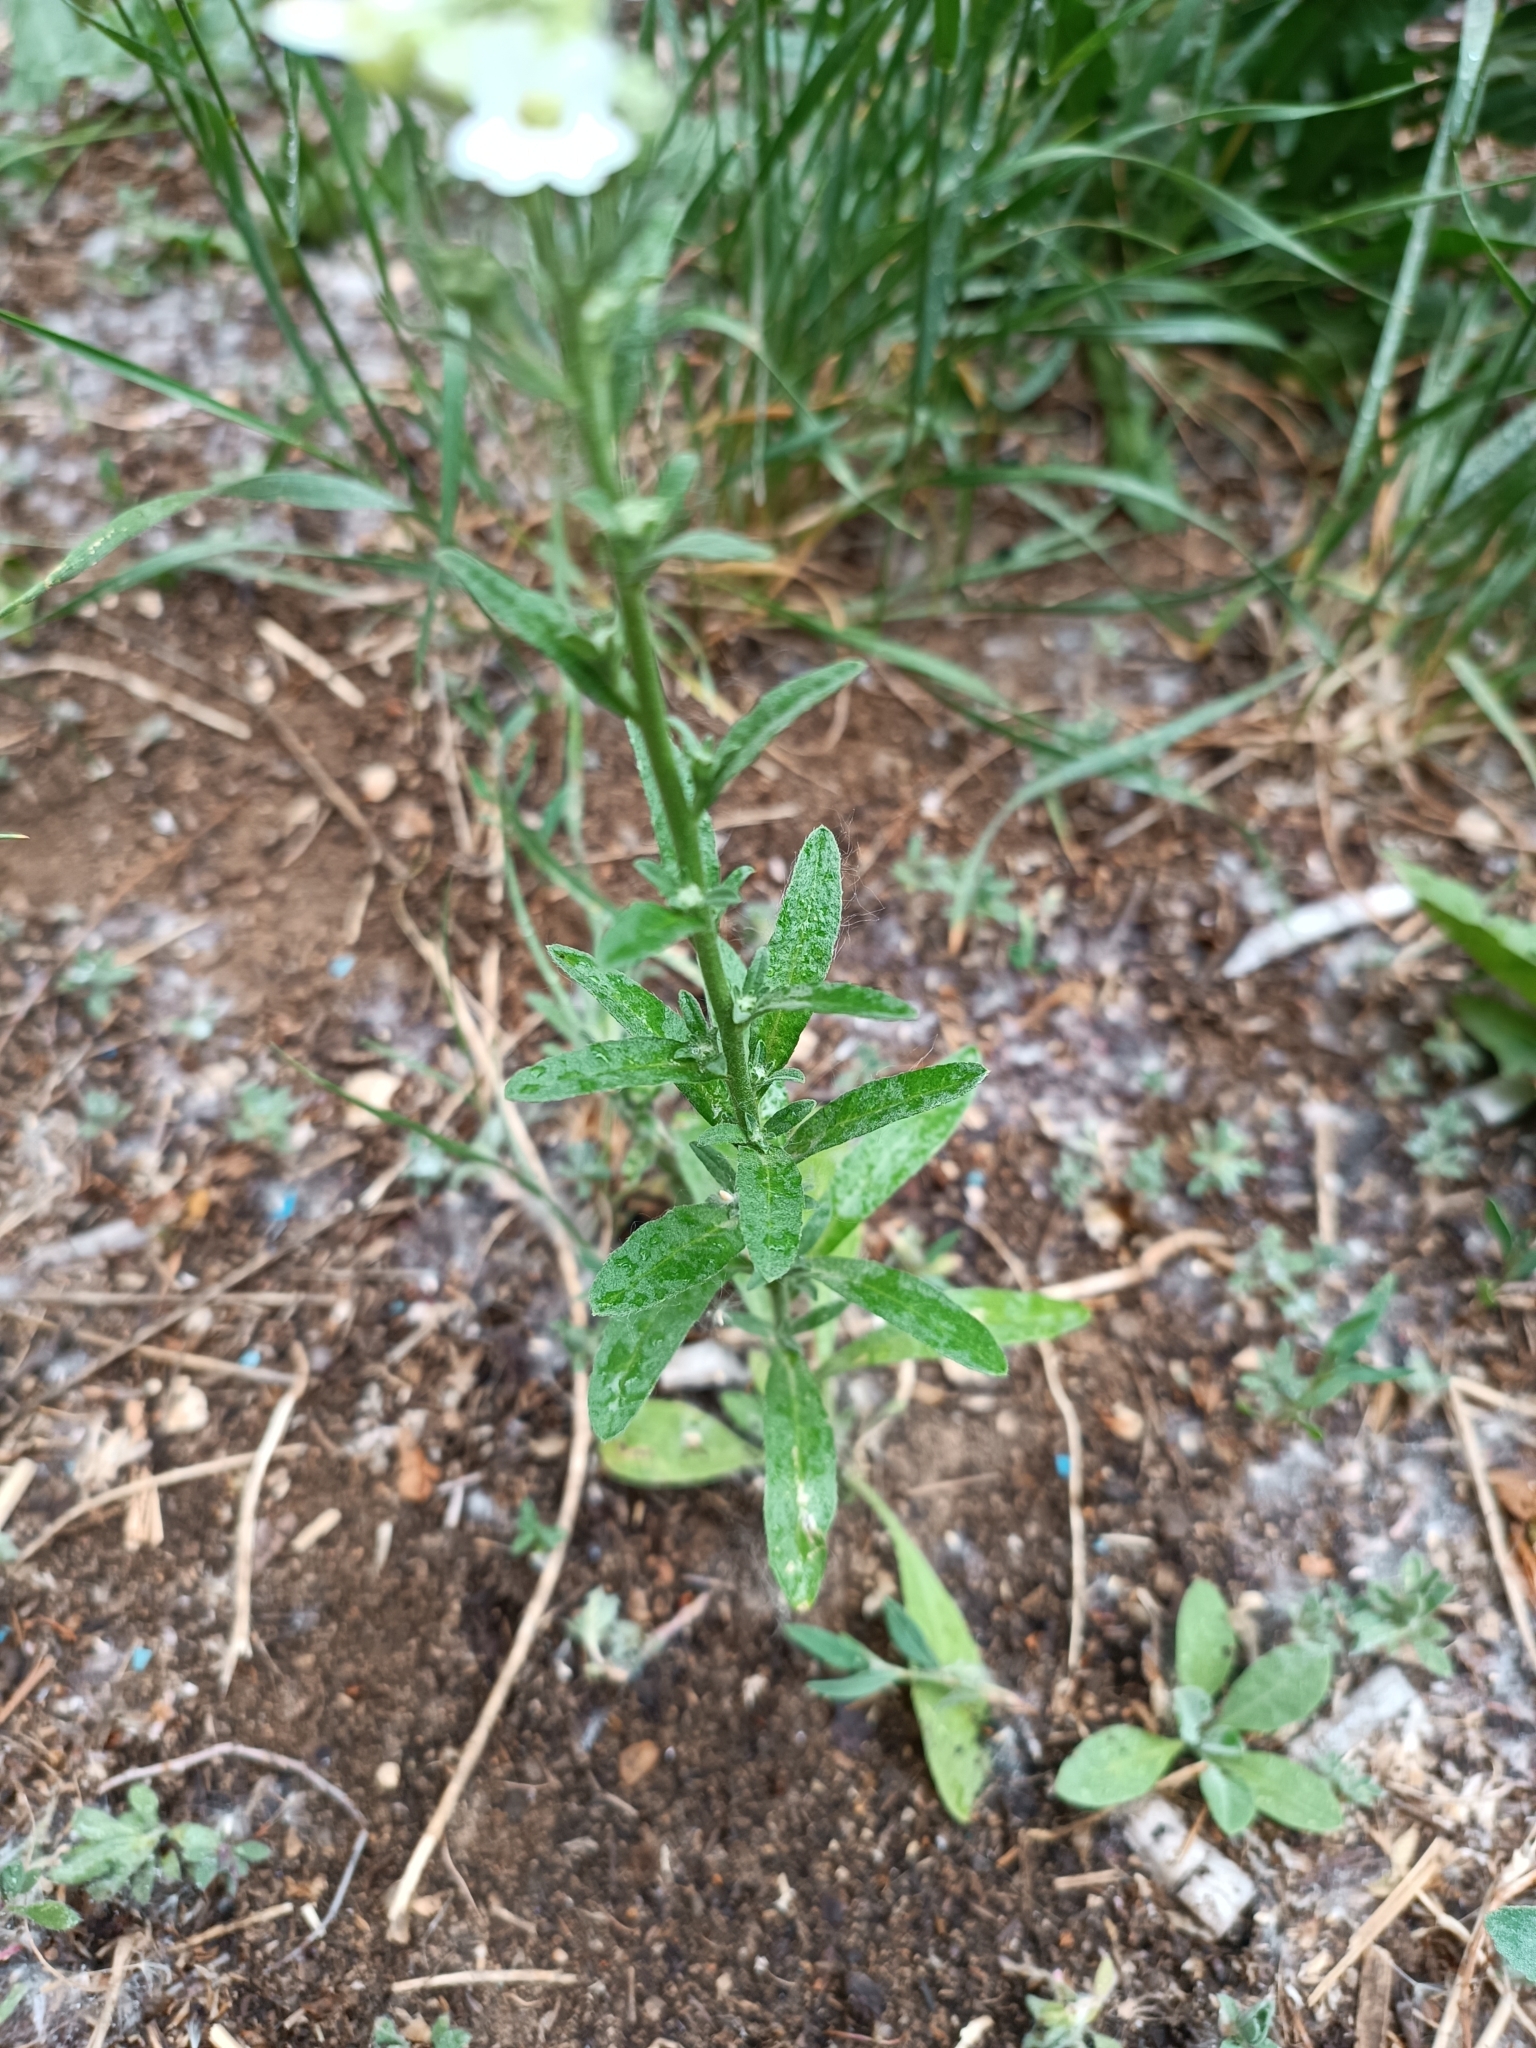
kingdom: Plantae
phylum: Tracheophyta
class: Magnoliopsida
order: Brassicales
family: Brassicaceae
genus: Berteroa
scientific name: Berteroa incana
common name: Hoary alison
